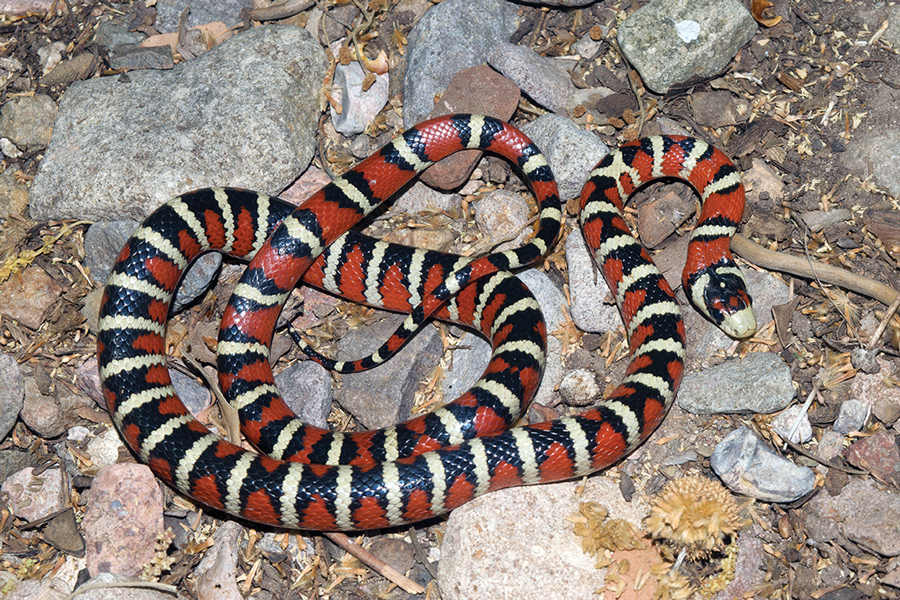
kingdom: Animalia
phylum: Chordata
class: Squamata
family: Colubridae
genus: Lampropeltis
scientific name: Lampropeltis knoblochi
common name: Chihuahuan mountain kingsnake
